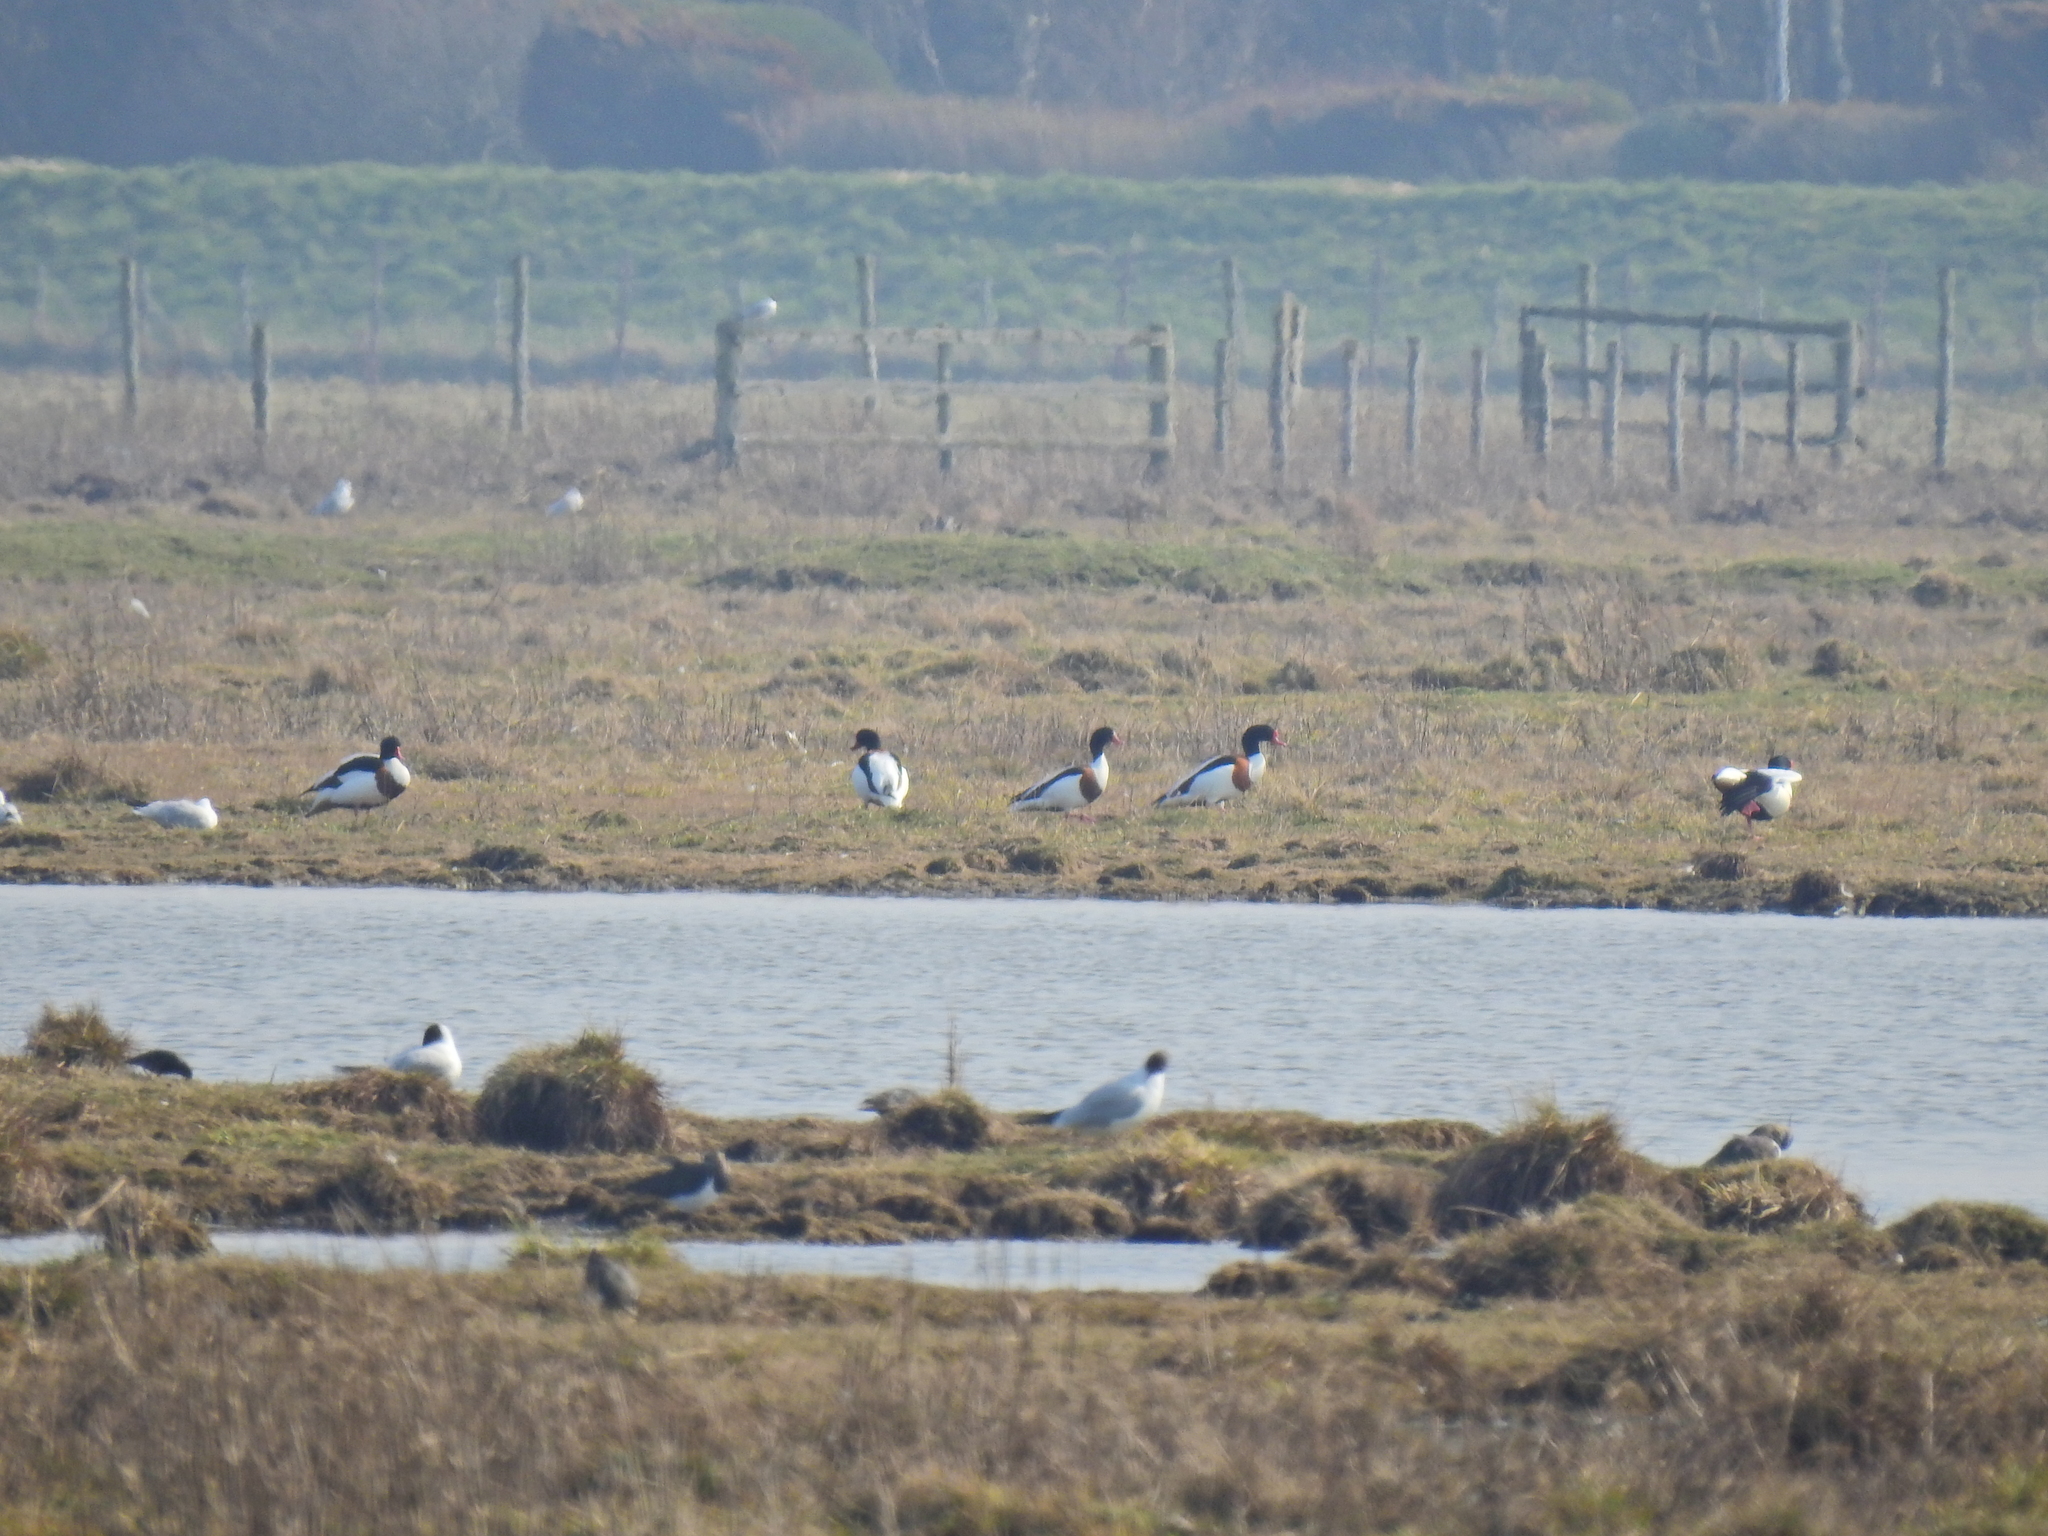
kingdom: Animalia
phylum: Chordata
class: Aves
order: Anseriformes
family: Anatidae
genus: Tadorna
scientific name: Tadorna tadorna
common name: Common shelduck
